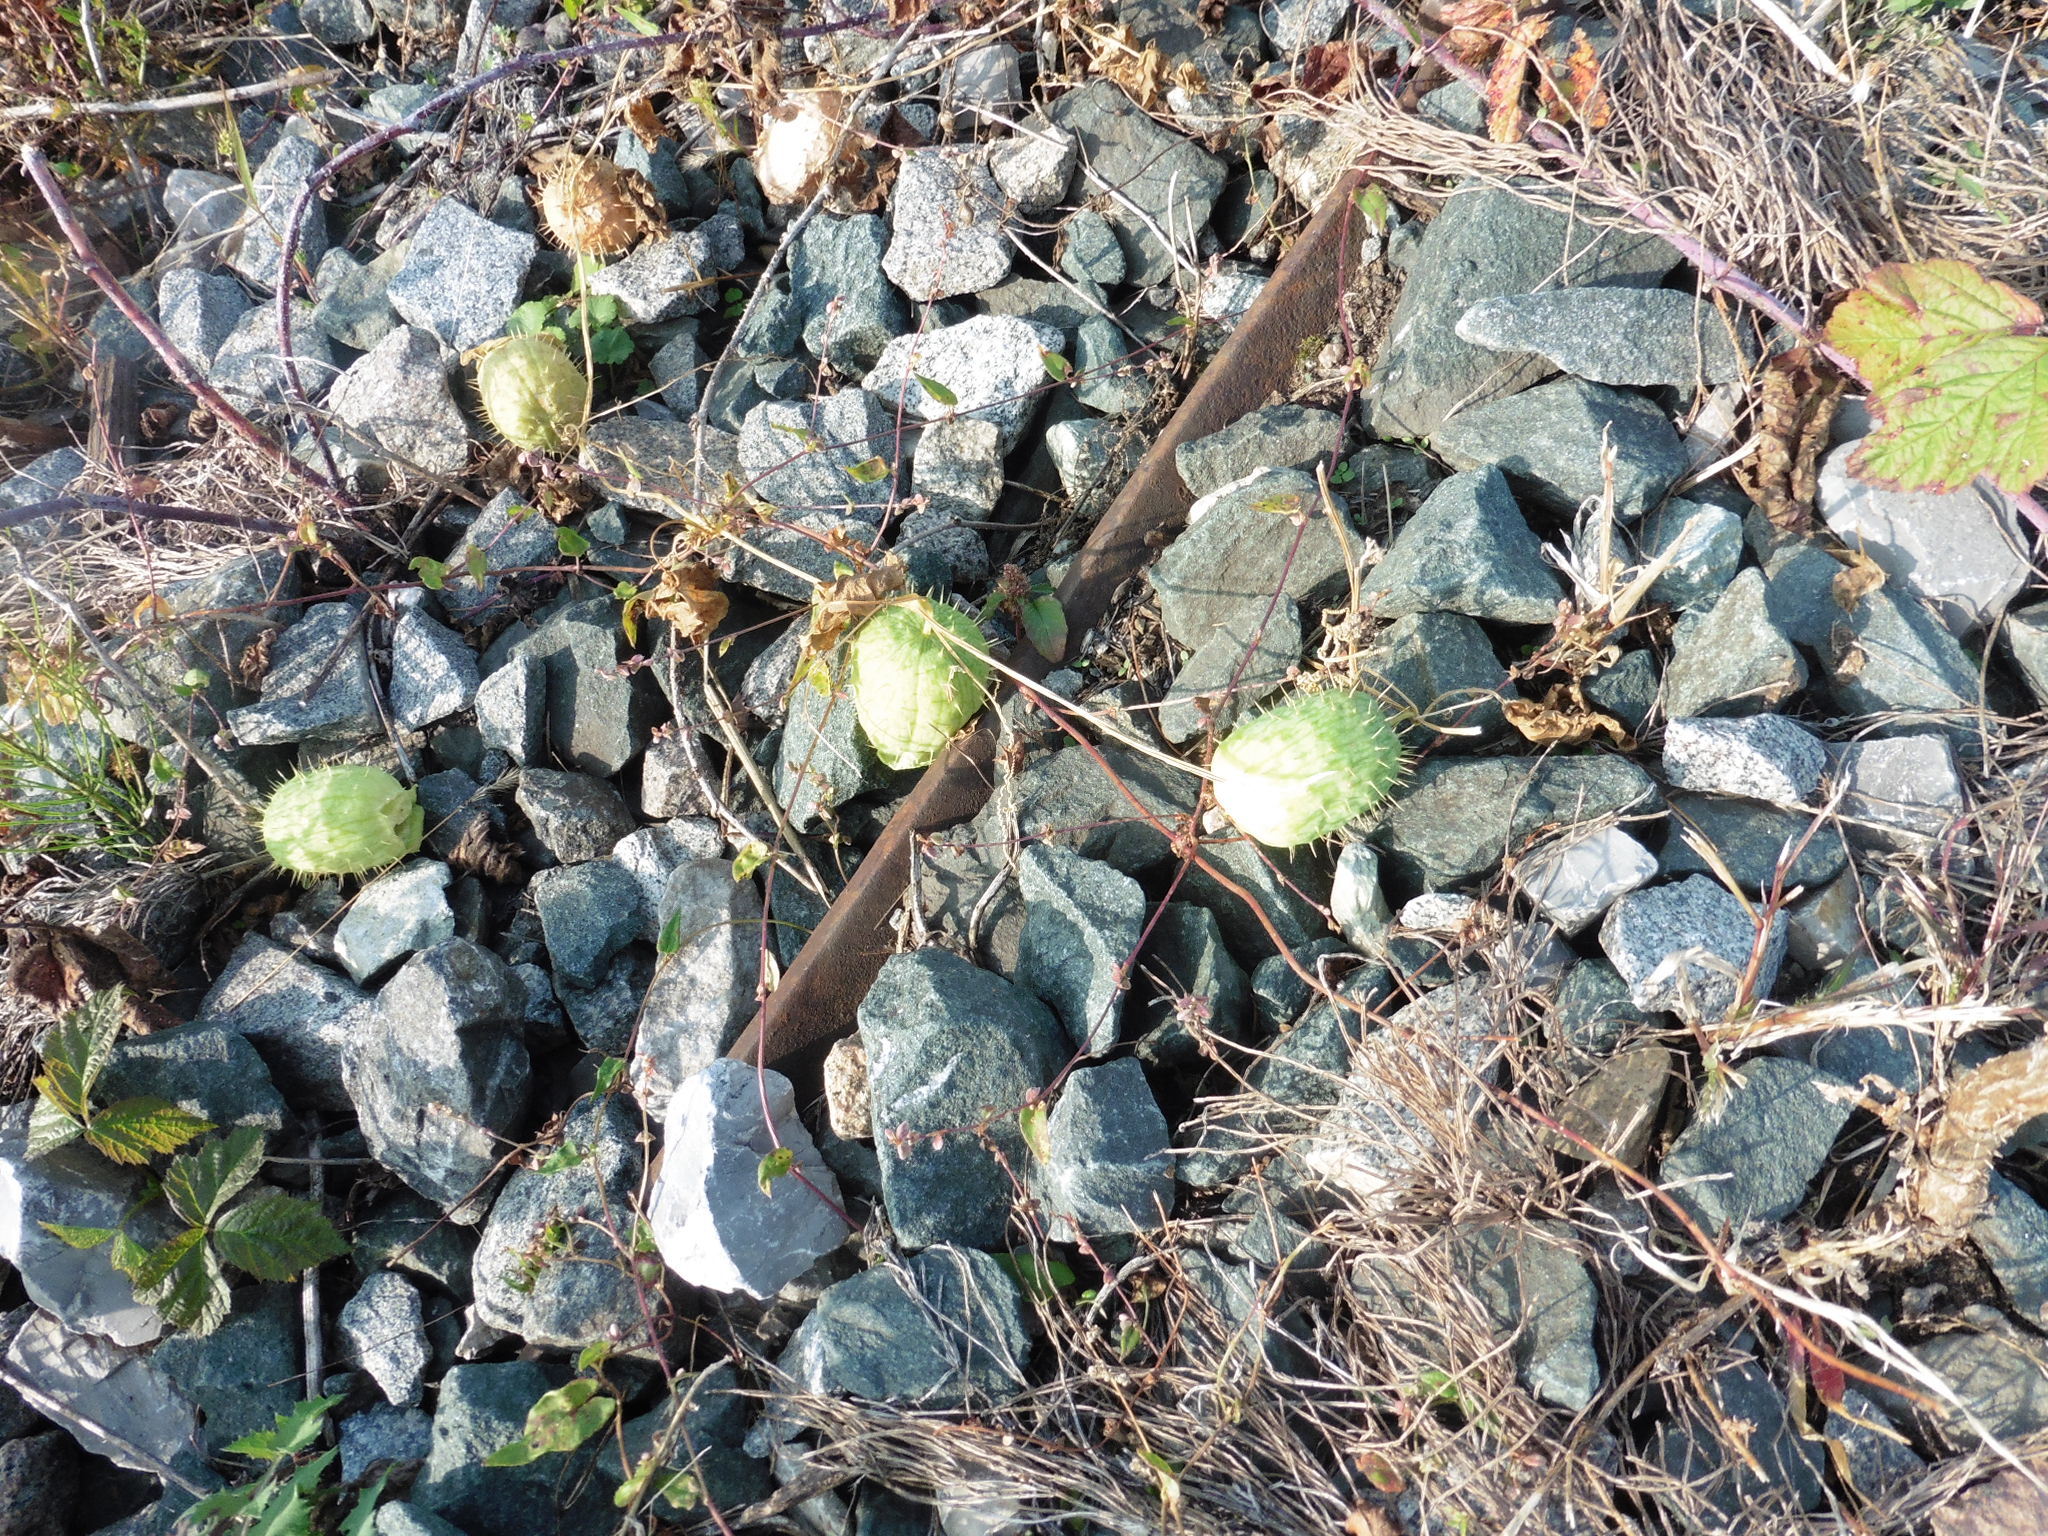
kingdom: Plantae
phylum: Tracheophyta
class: Magnoliopsida
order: Cucurbitales
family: Cucurbitaceae
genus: Echinocystis
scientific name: Echinocystis lobata
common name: Wild cucumber
